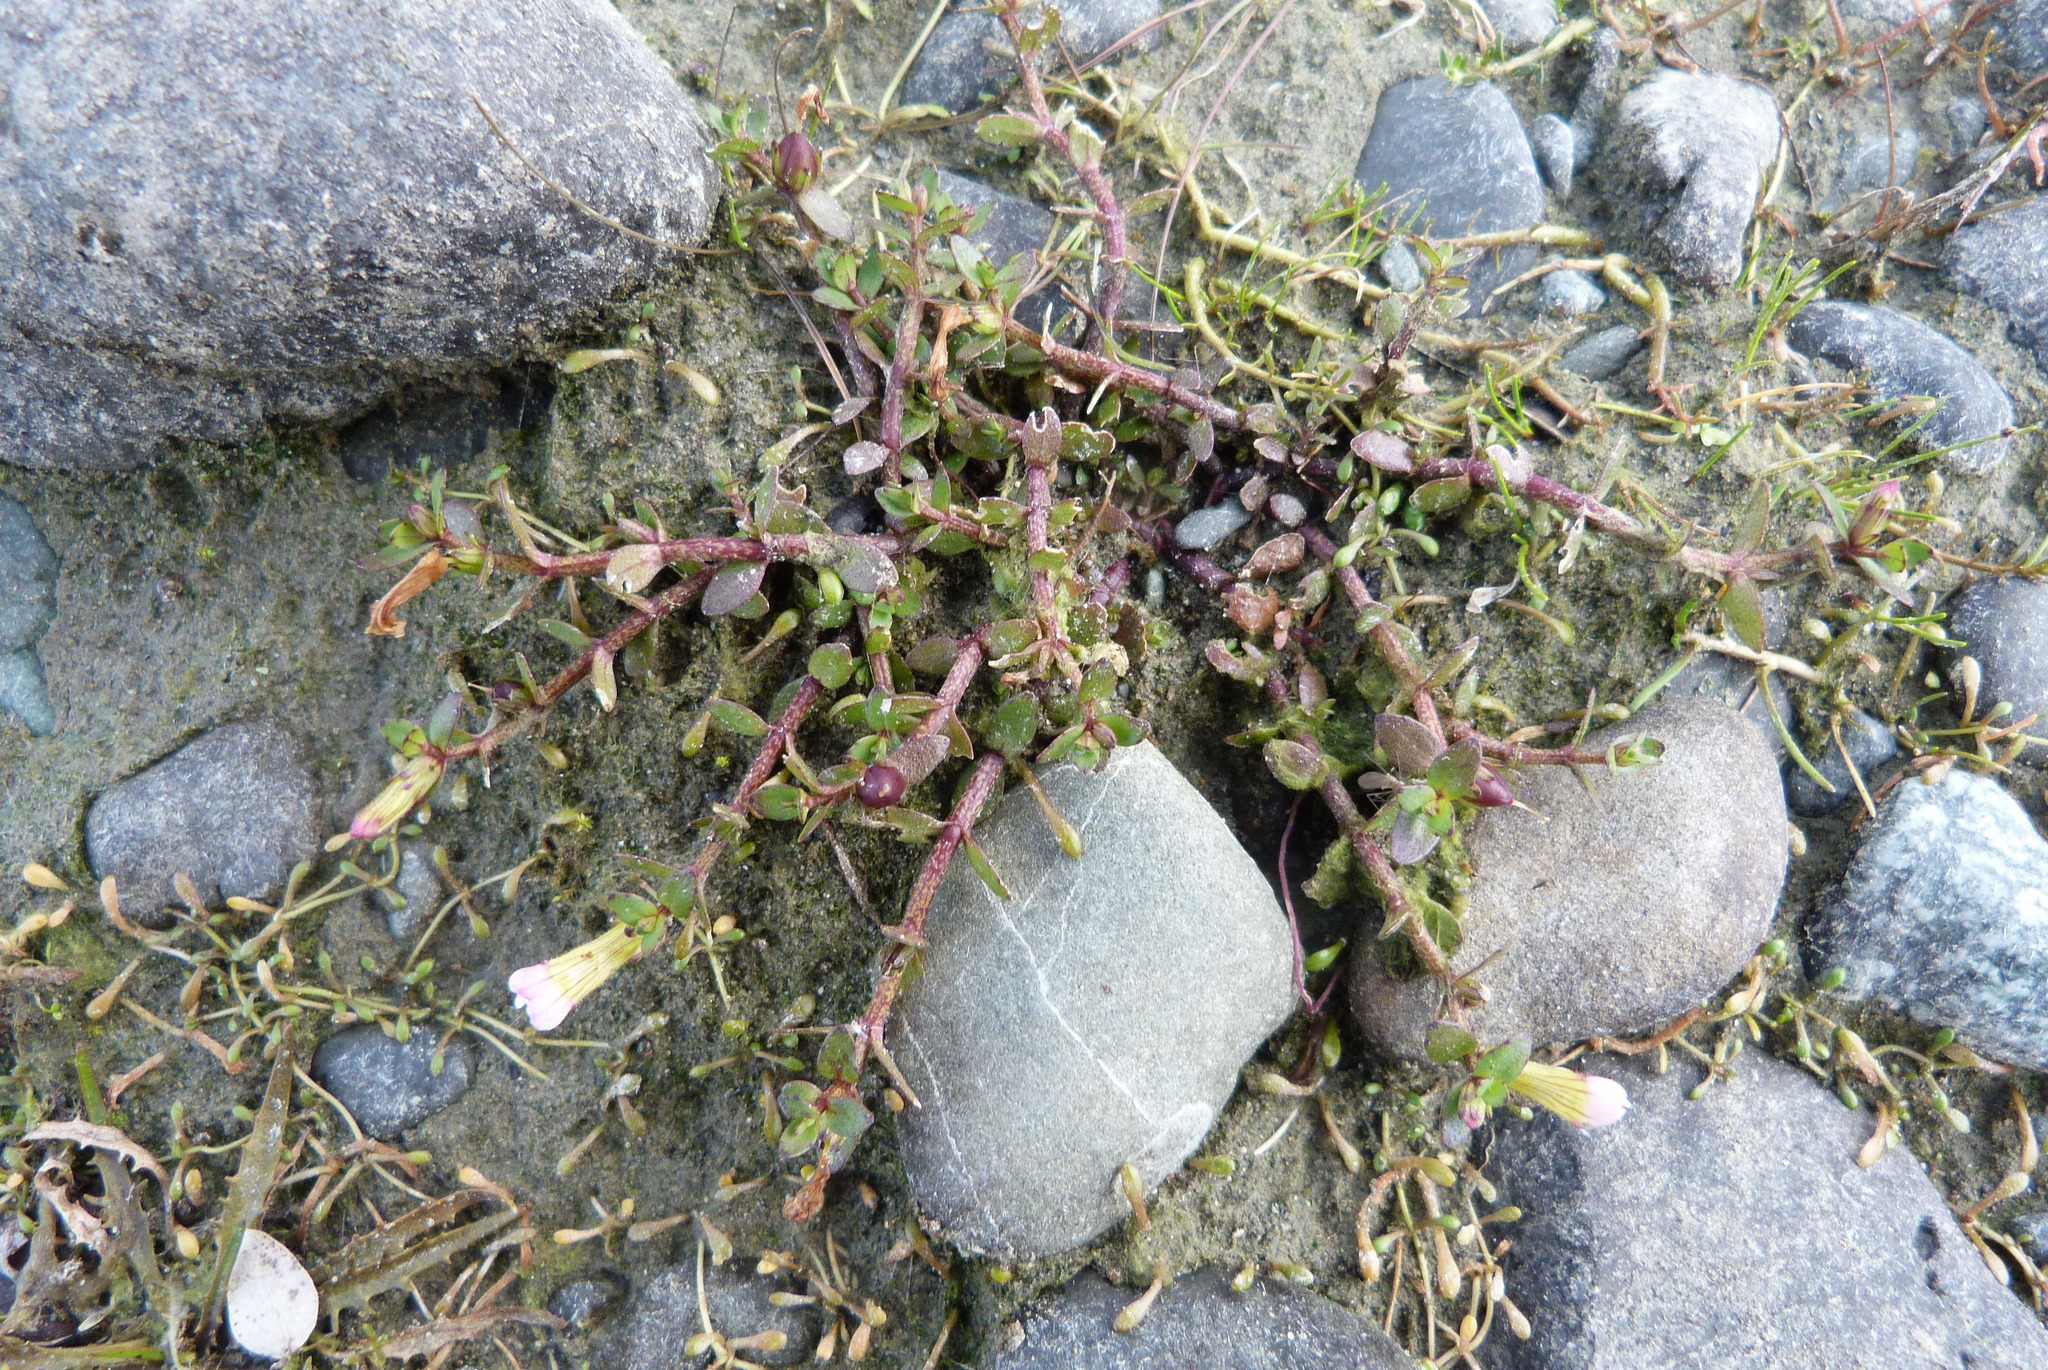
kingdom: Plantae
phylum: Tracheophyta
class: Magnoliopsida
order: Lamiales
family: Plantaginaceae
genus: Gratiola
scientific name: Gratiola sexdentata
